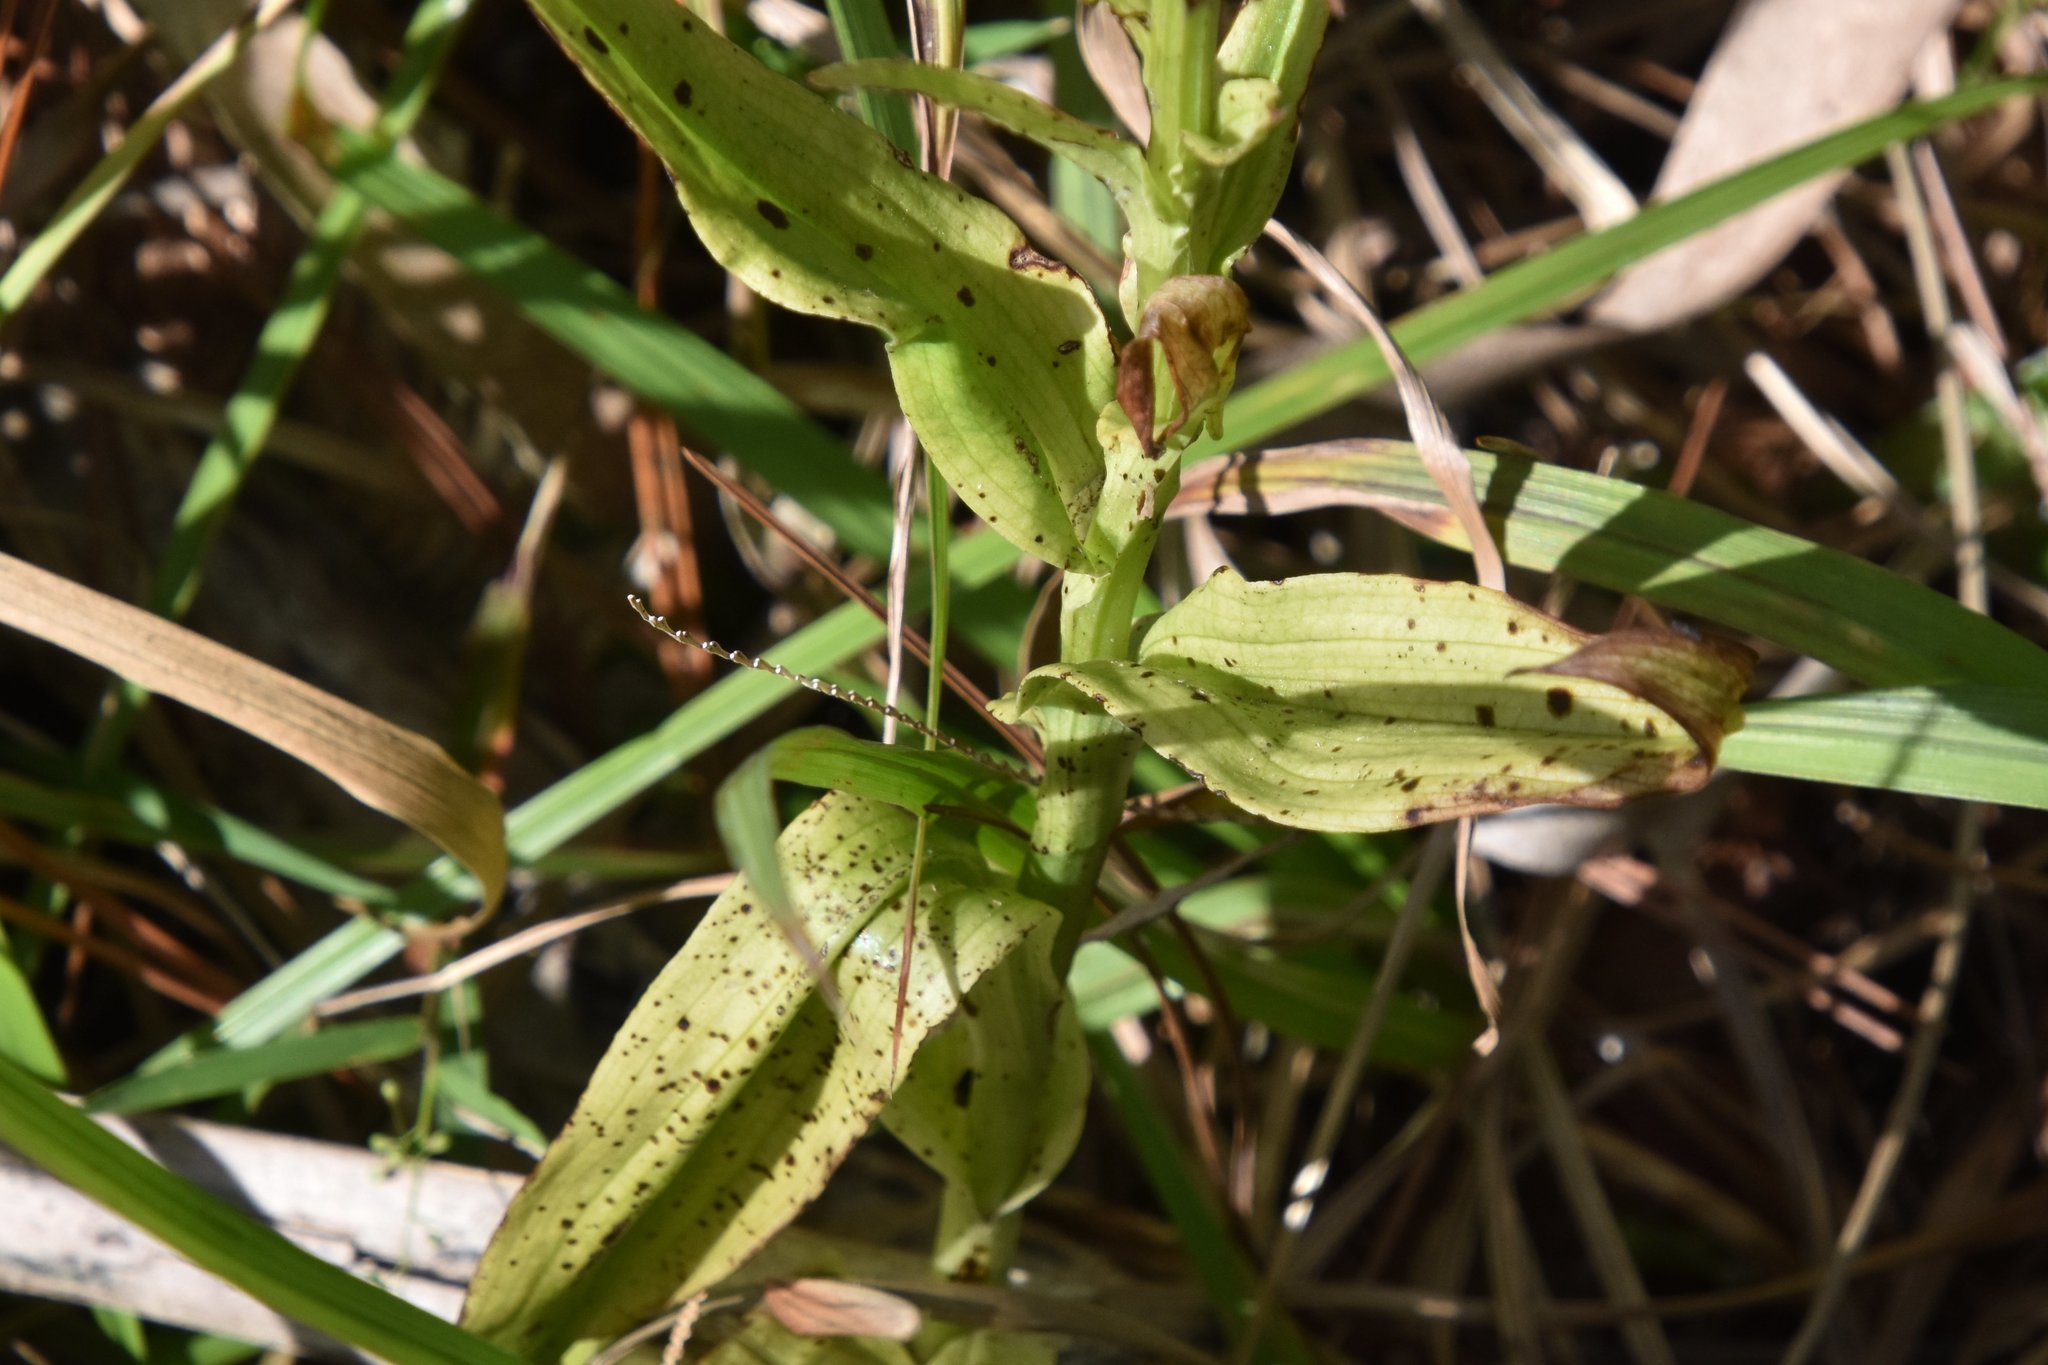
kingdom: Plantae
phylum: Tracheophyta
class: Liliopsida
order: Asparagales
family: Orchidaceae
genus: Habenaria
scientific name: Habenaria floribunda
